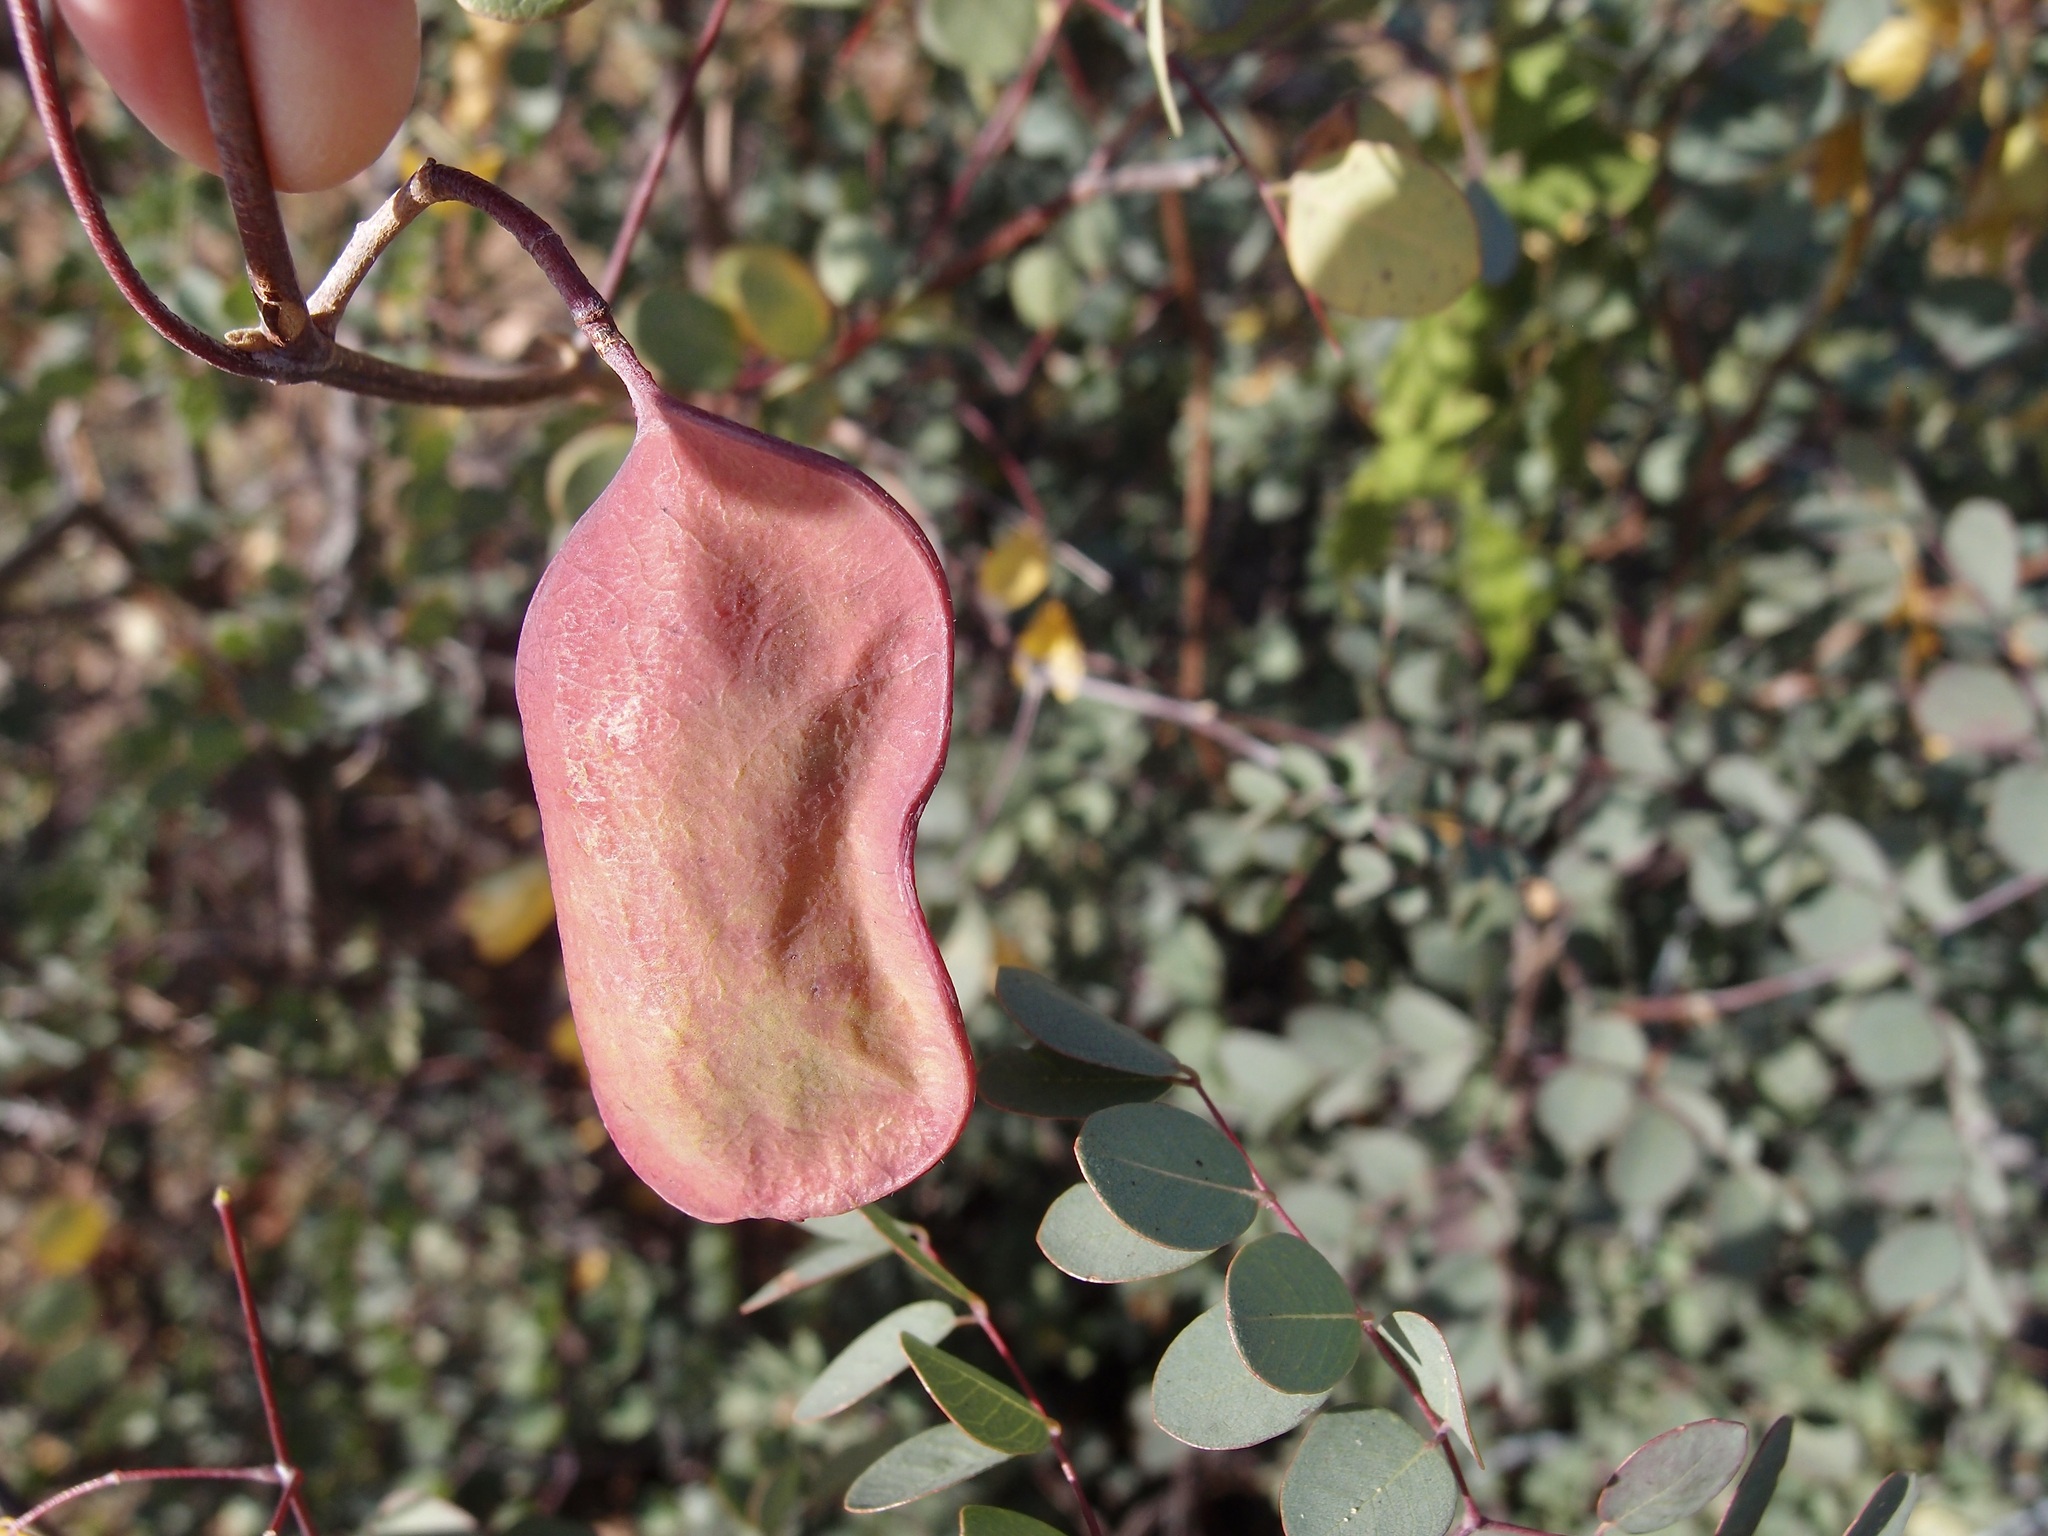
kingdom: Plantae
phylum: Tracheophyta
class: Magnoliopsida
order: Fabales
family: Fabaceae
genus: Coulteria
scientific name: Coulteria pumila
